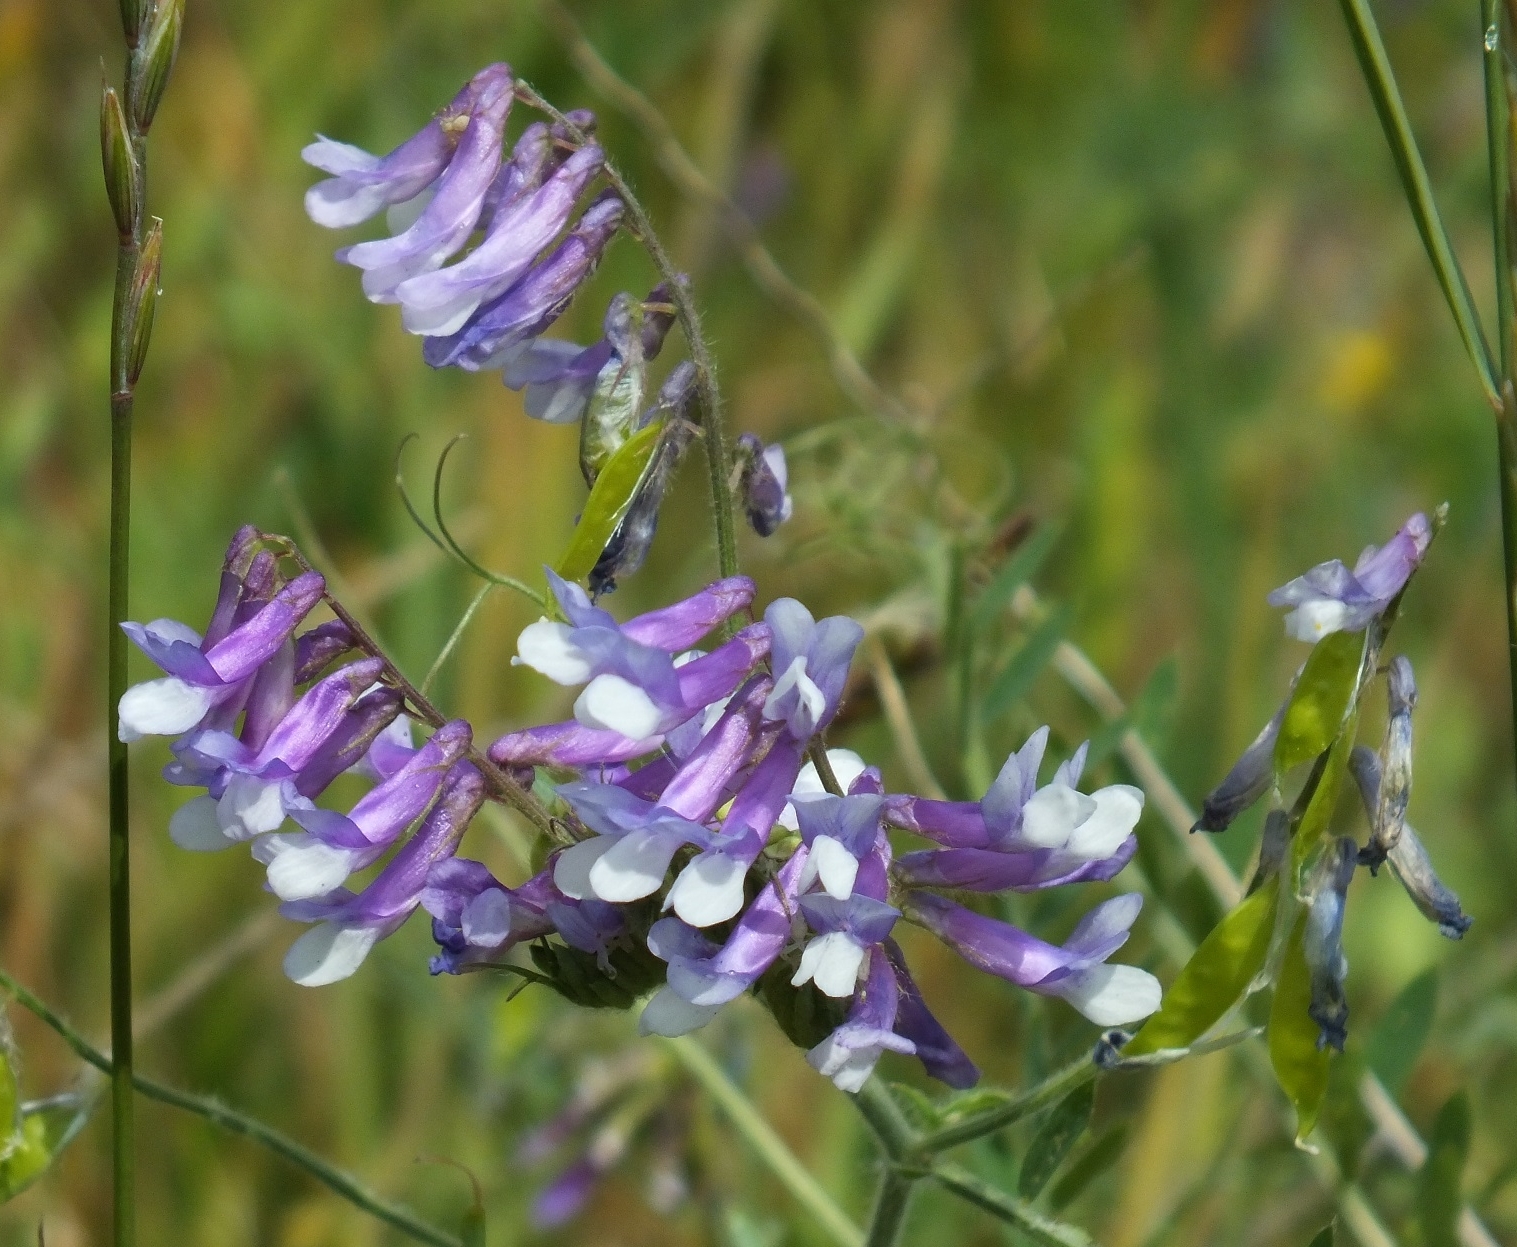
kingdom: Plantae
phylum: Tracheophyta
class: Magnoliopsida
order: Fabales
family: Fabaceae
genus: Vicia
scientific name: Vicia villosa
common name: Fodder vetch
